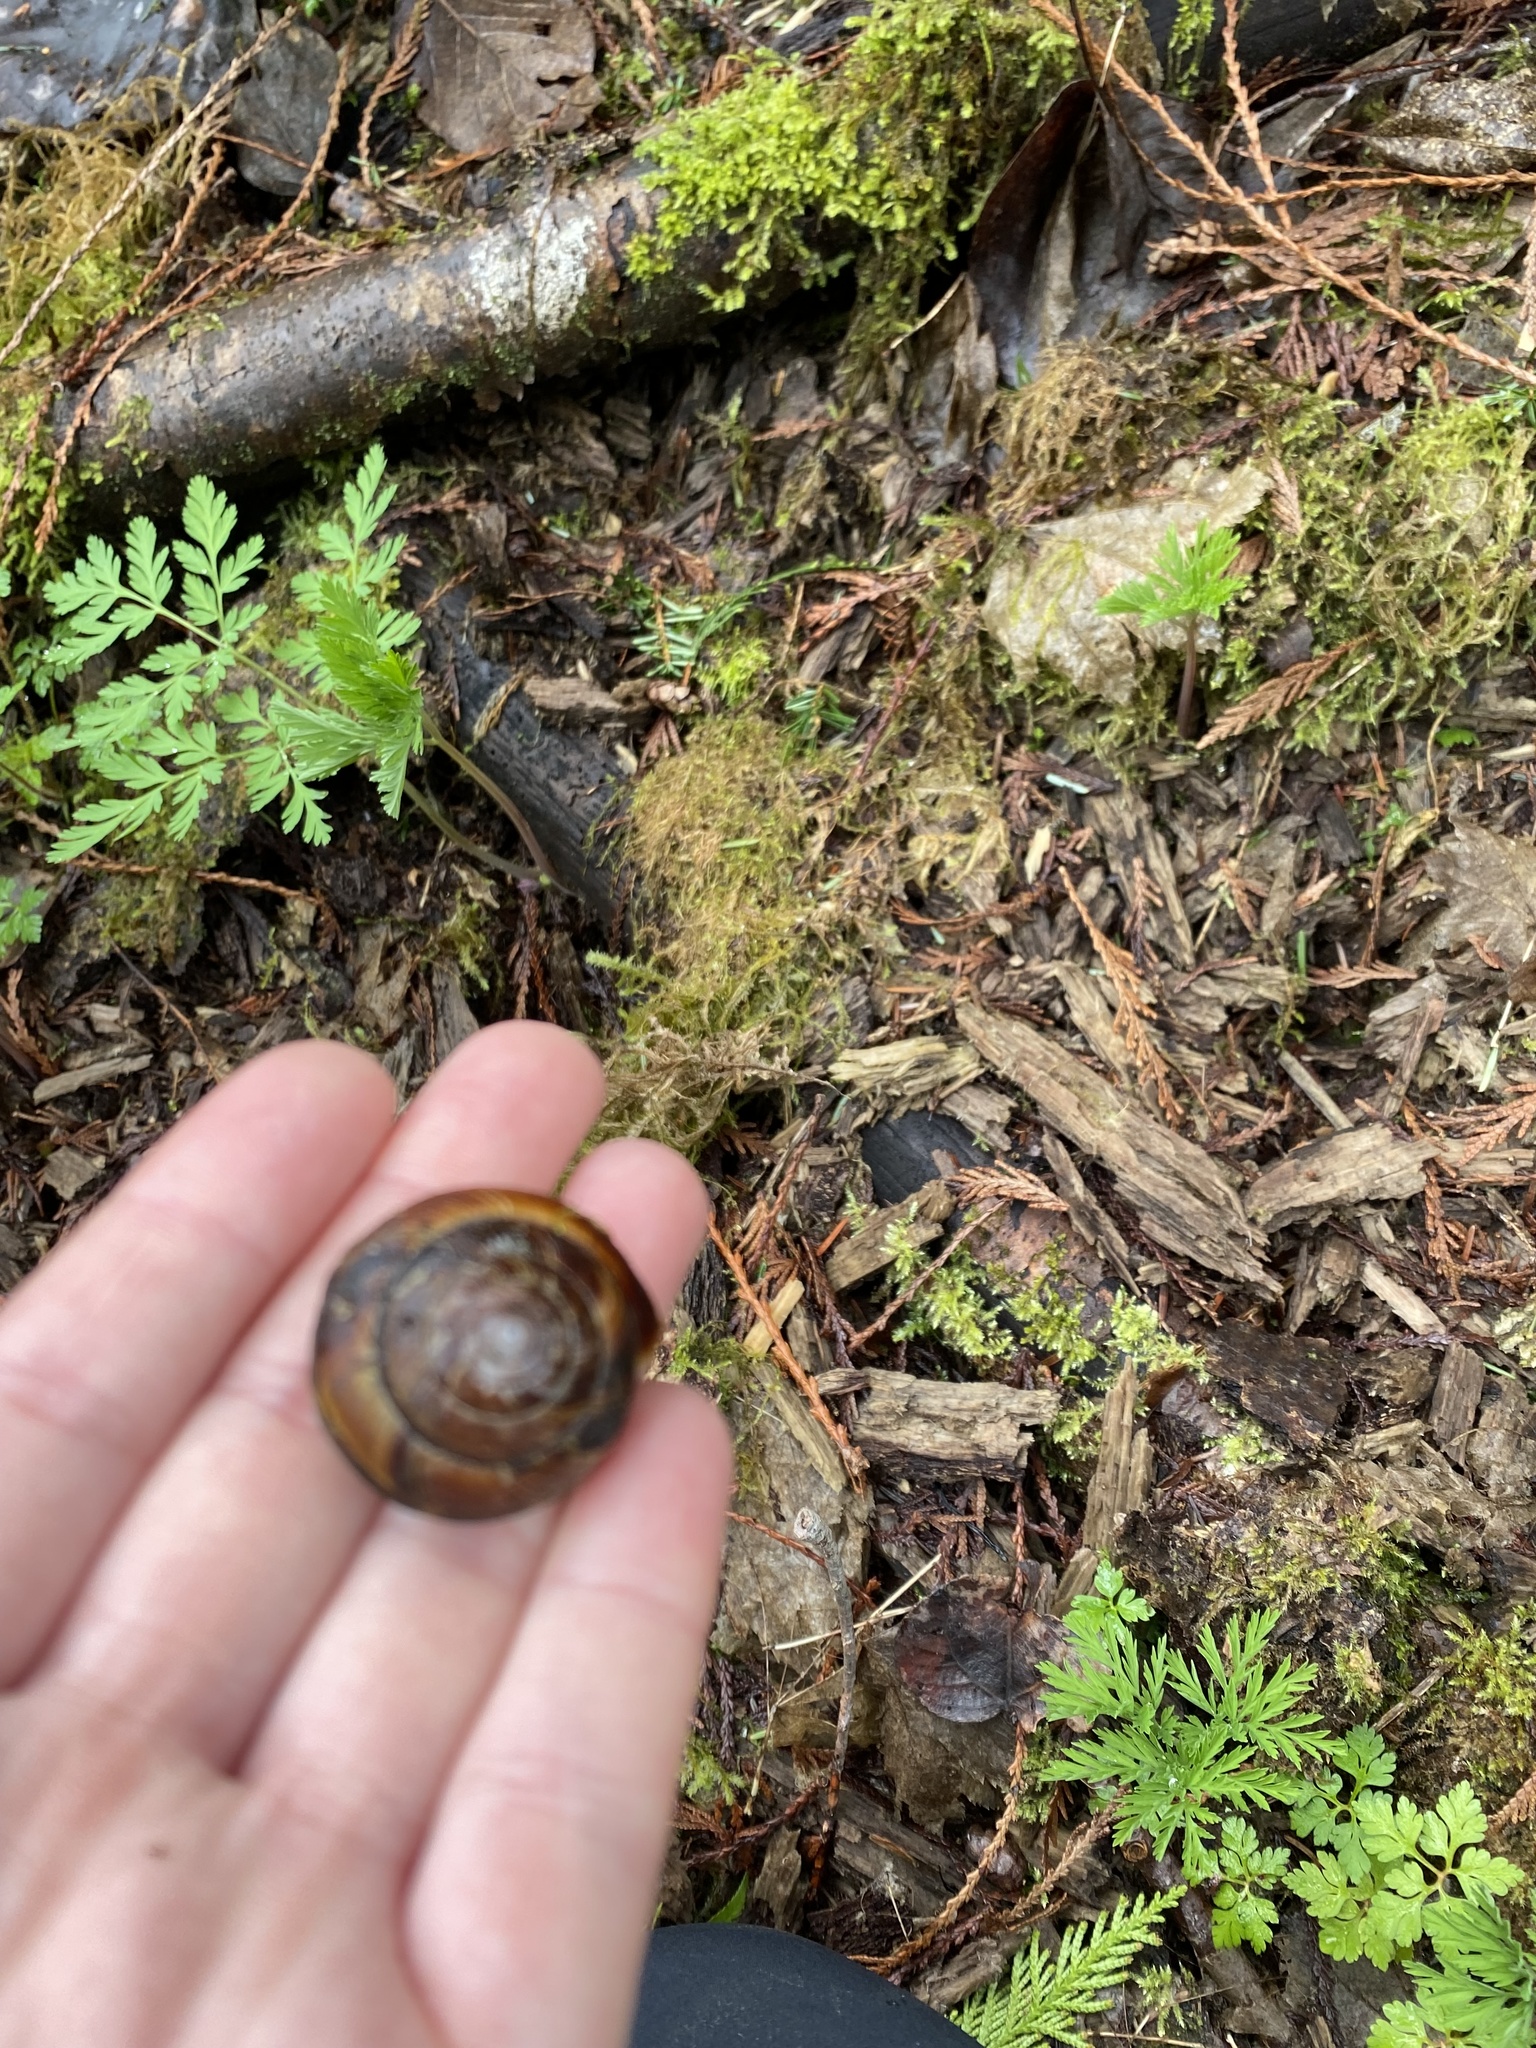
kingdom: Animalia
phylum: Mollusca
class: Gastropoda
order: Stylommatophora
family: Xanthonychidae
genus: Monadenia
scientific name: Monadenia fidelis
